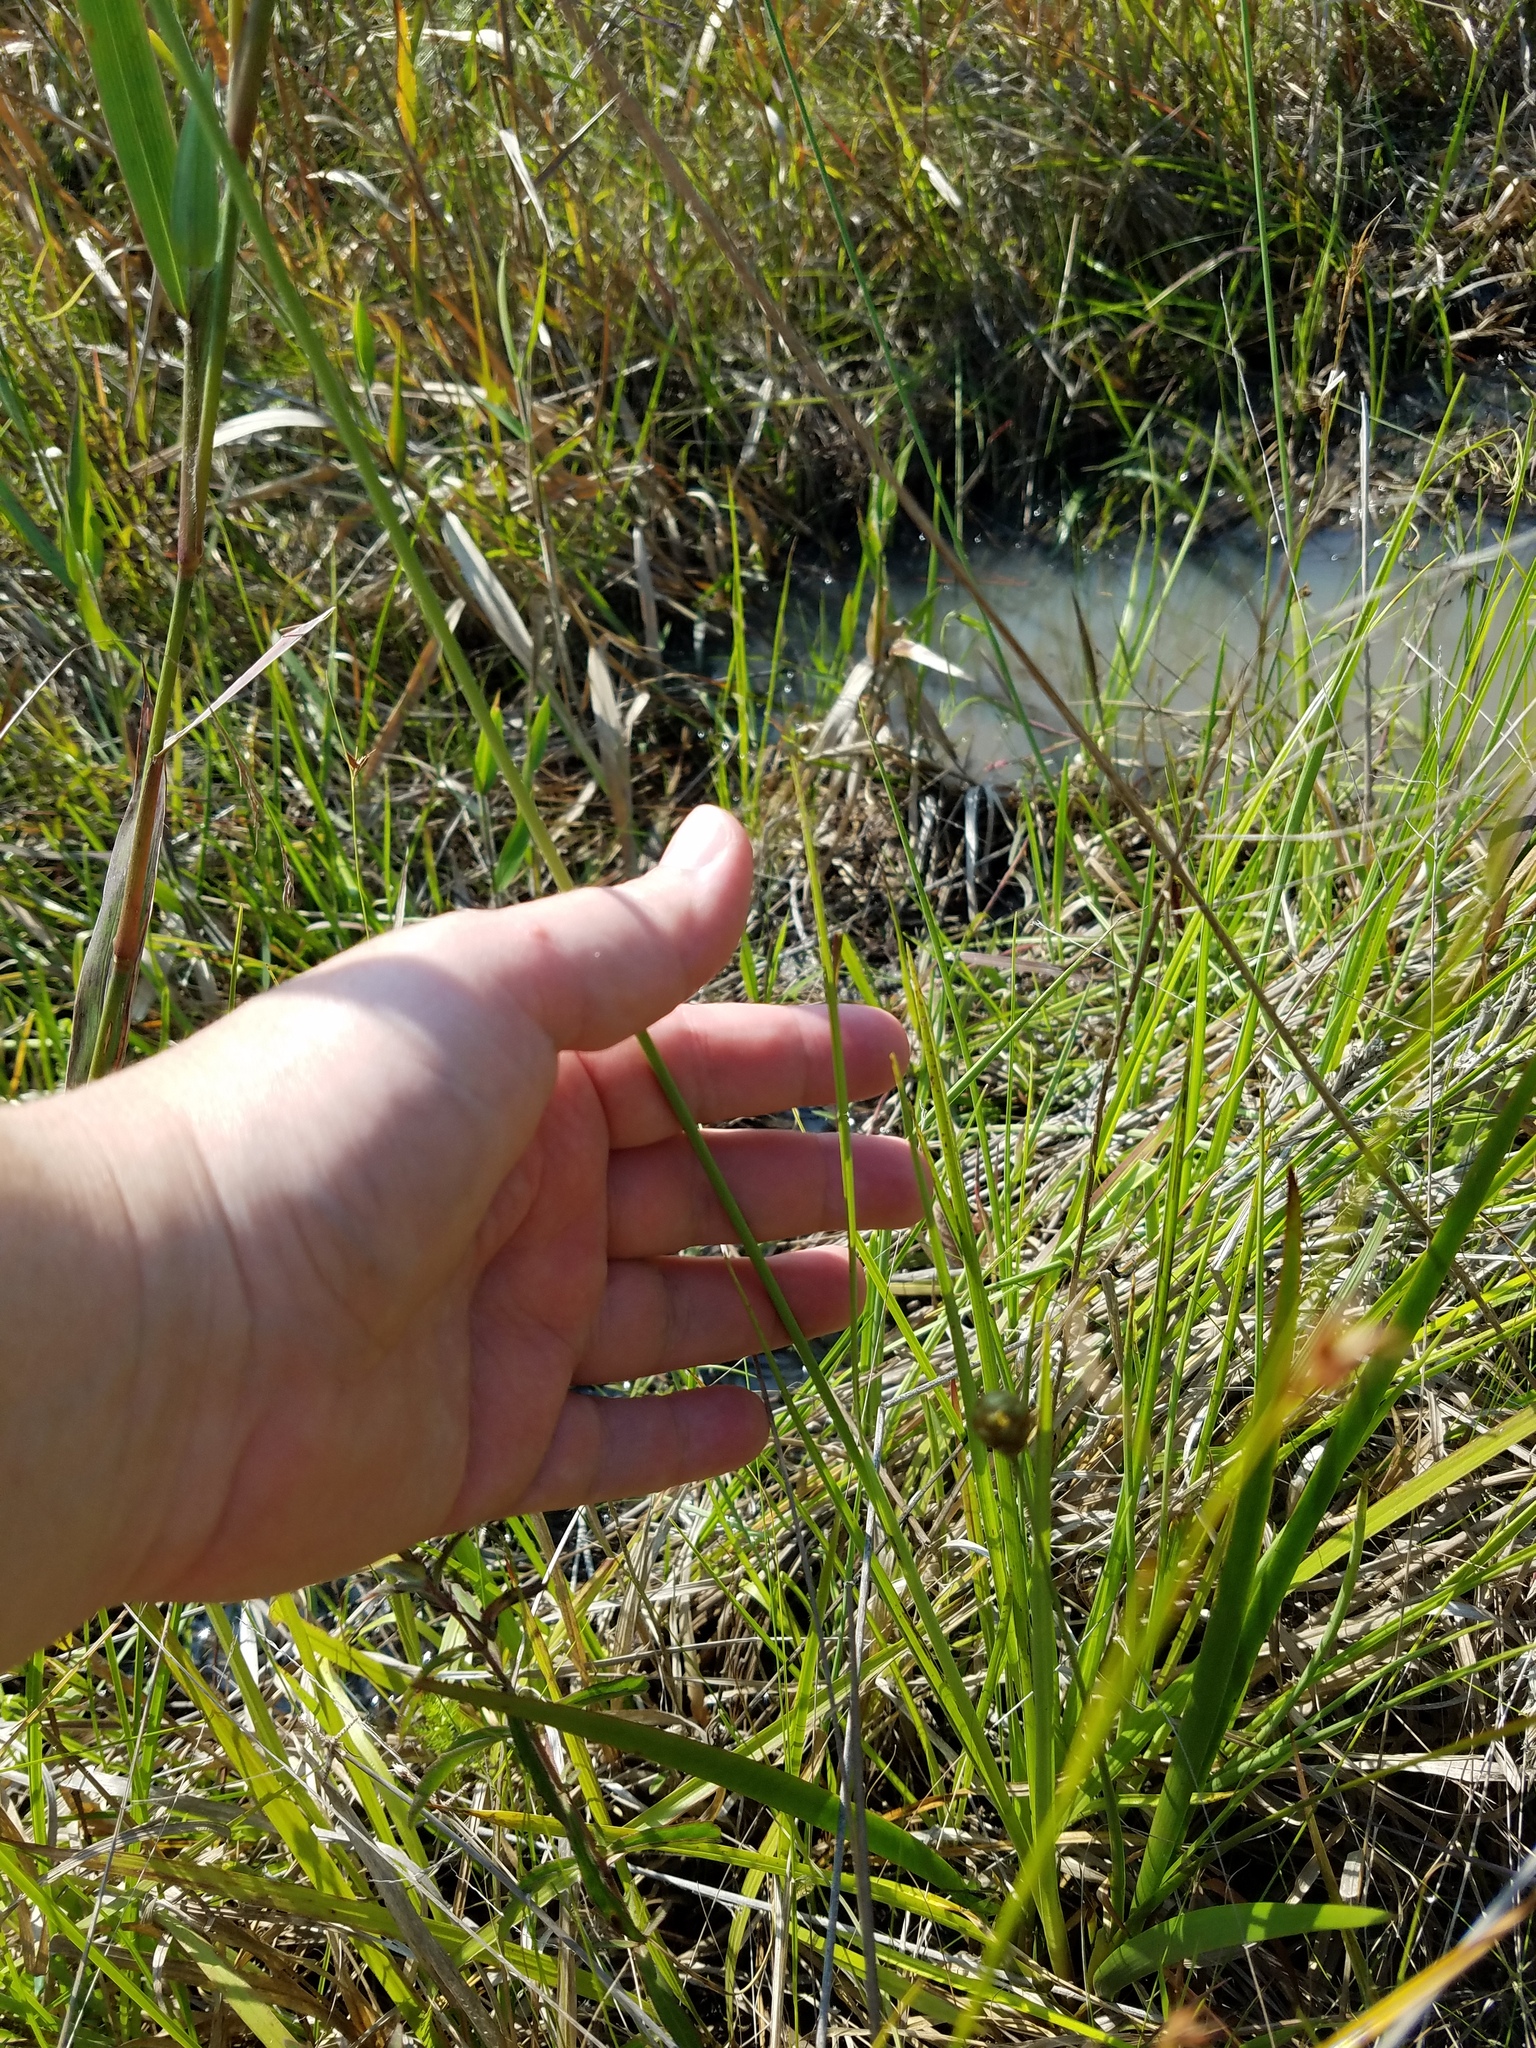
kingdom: Plantae
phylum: Tracheophyta
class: Liliopsida
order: Poales
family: Cyperaceae
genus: Rhynchospora
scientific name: Rhynchospora latifolia
